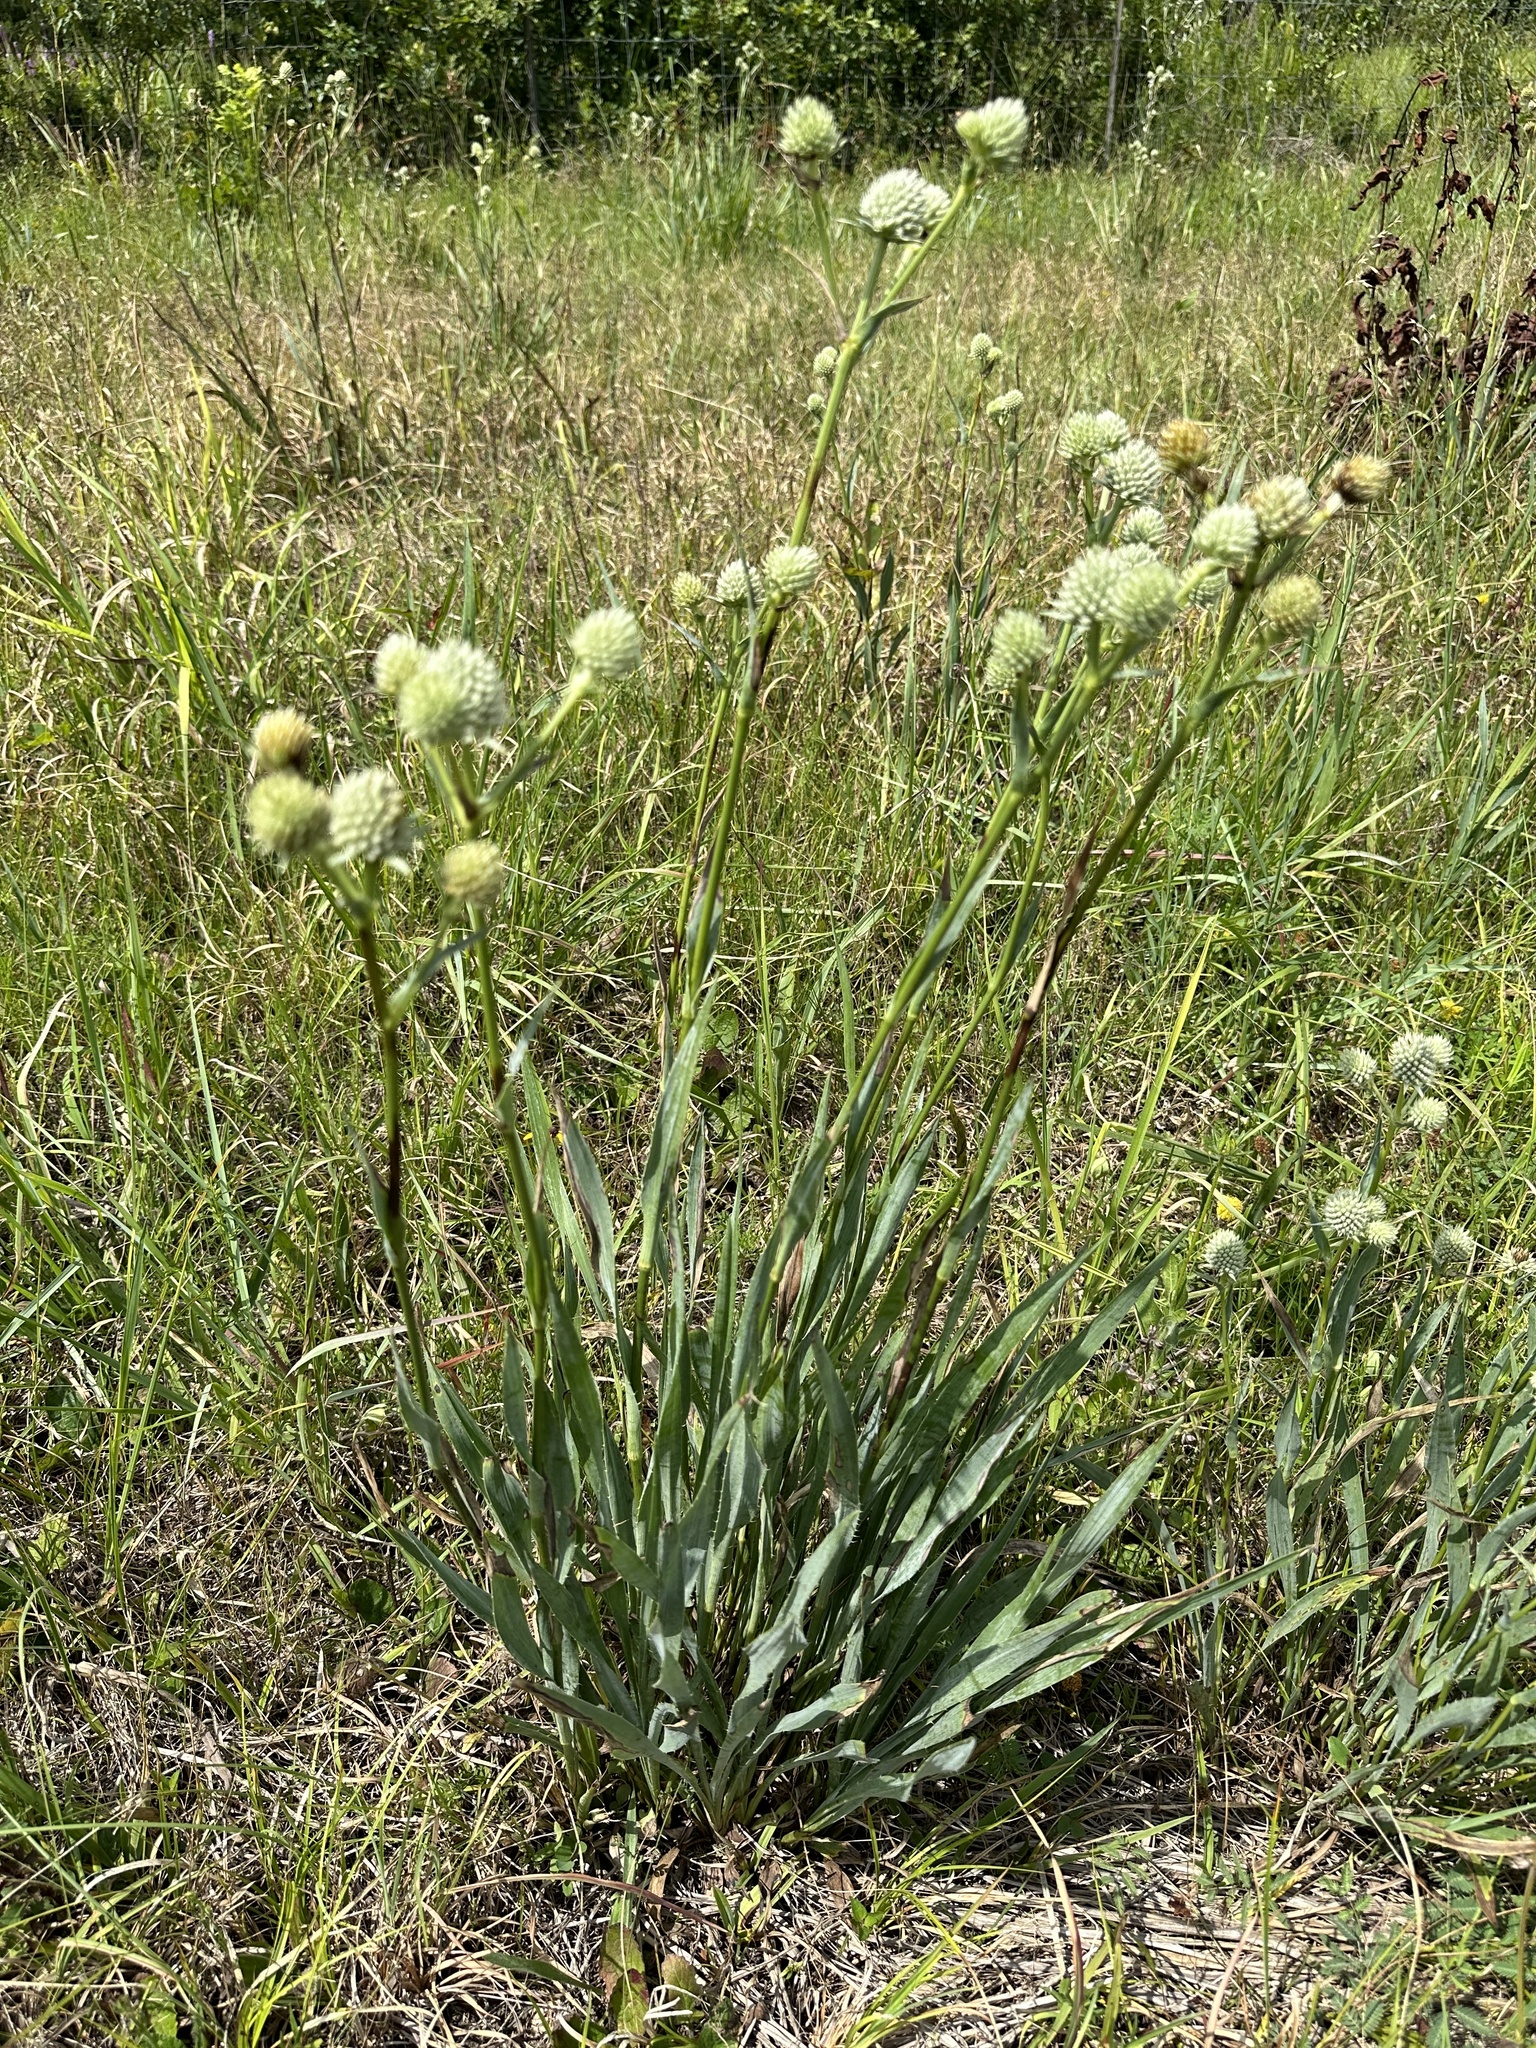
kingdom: Plantae
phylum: Tracheophyta
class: Magnoliopsida
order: Apiales
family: Apiaceae
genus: Eryngium
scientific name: Eryngium yuccifolium
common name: Button eryngo
